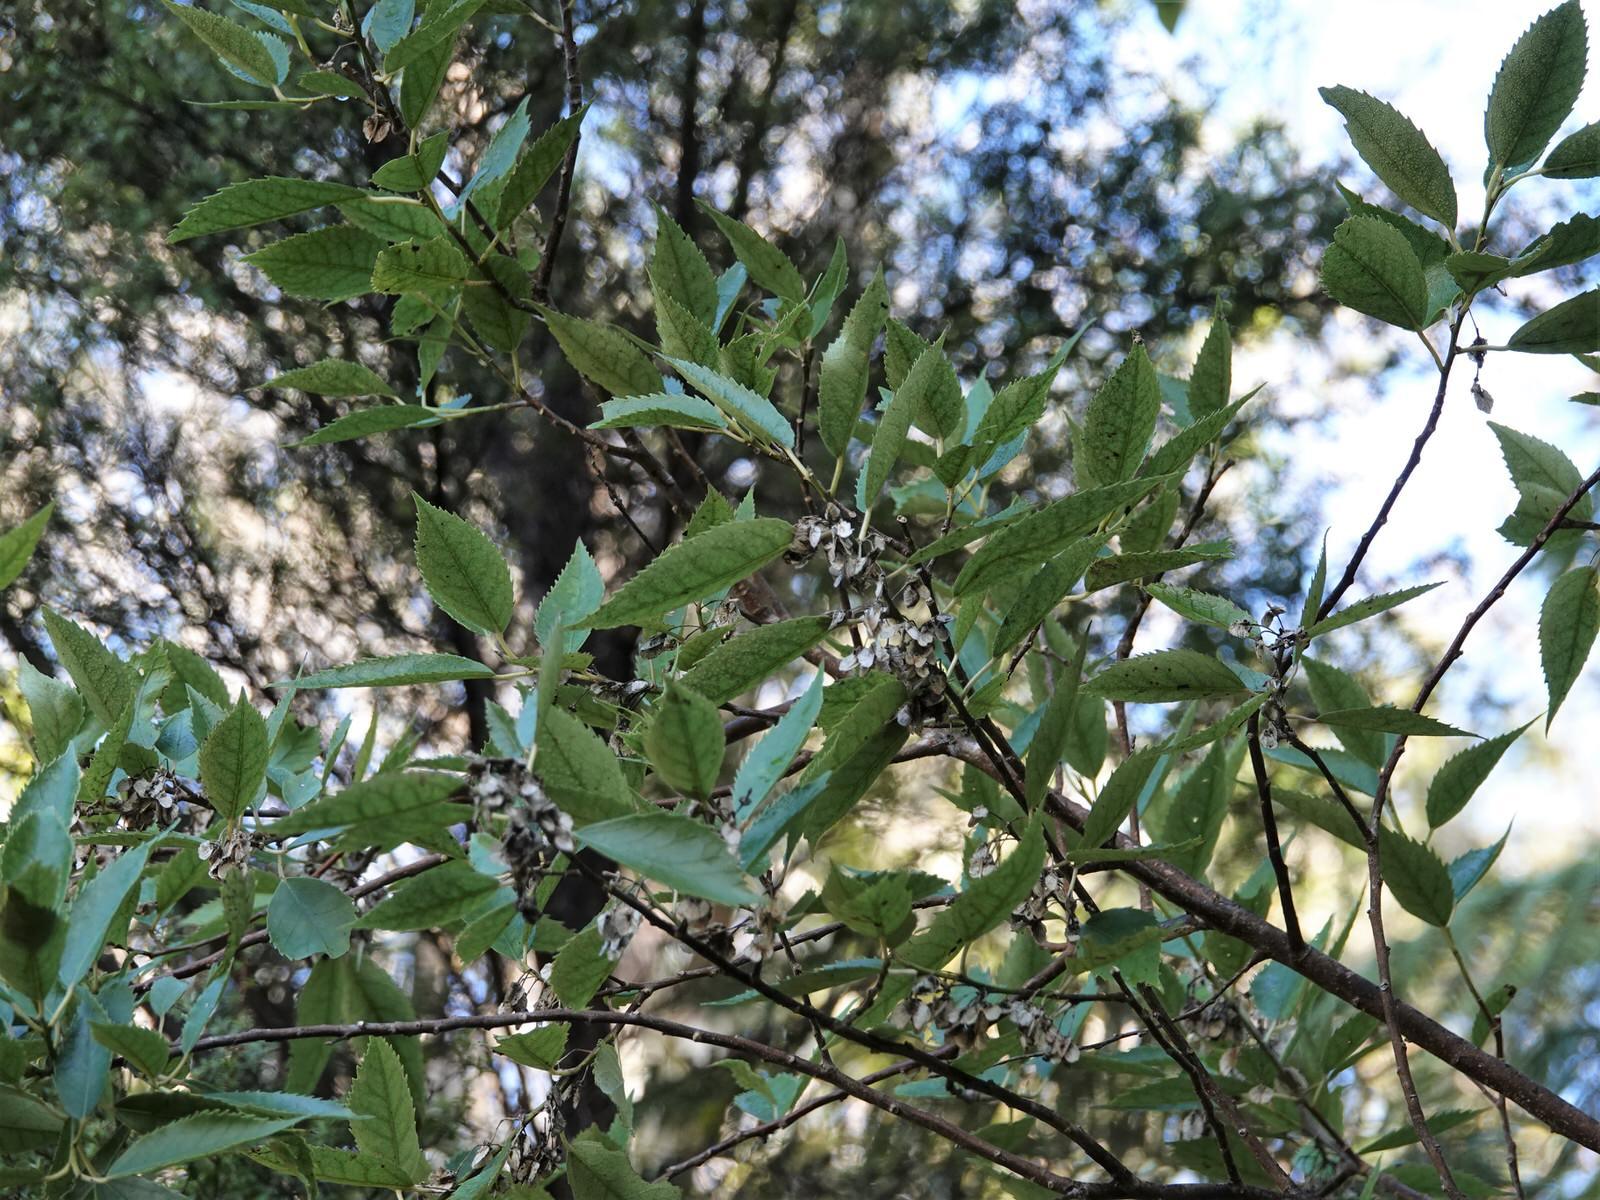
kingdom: Plantae
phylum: Tracheophyta
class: Magnoliopsida
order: Malvales
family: Malvaceae
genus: Hoheria
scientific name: Hoheria populnea
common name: Lacebark
